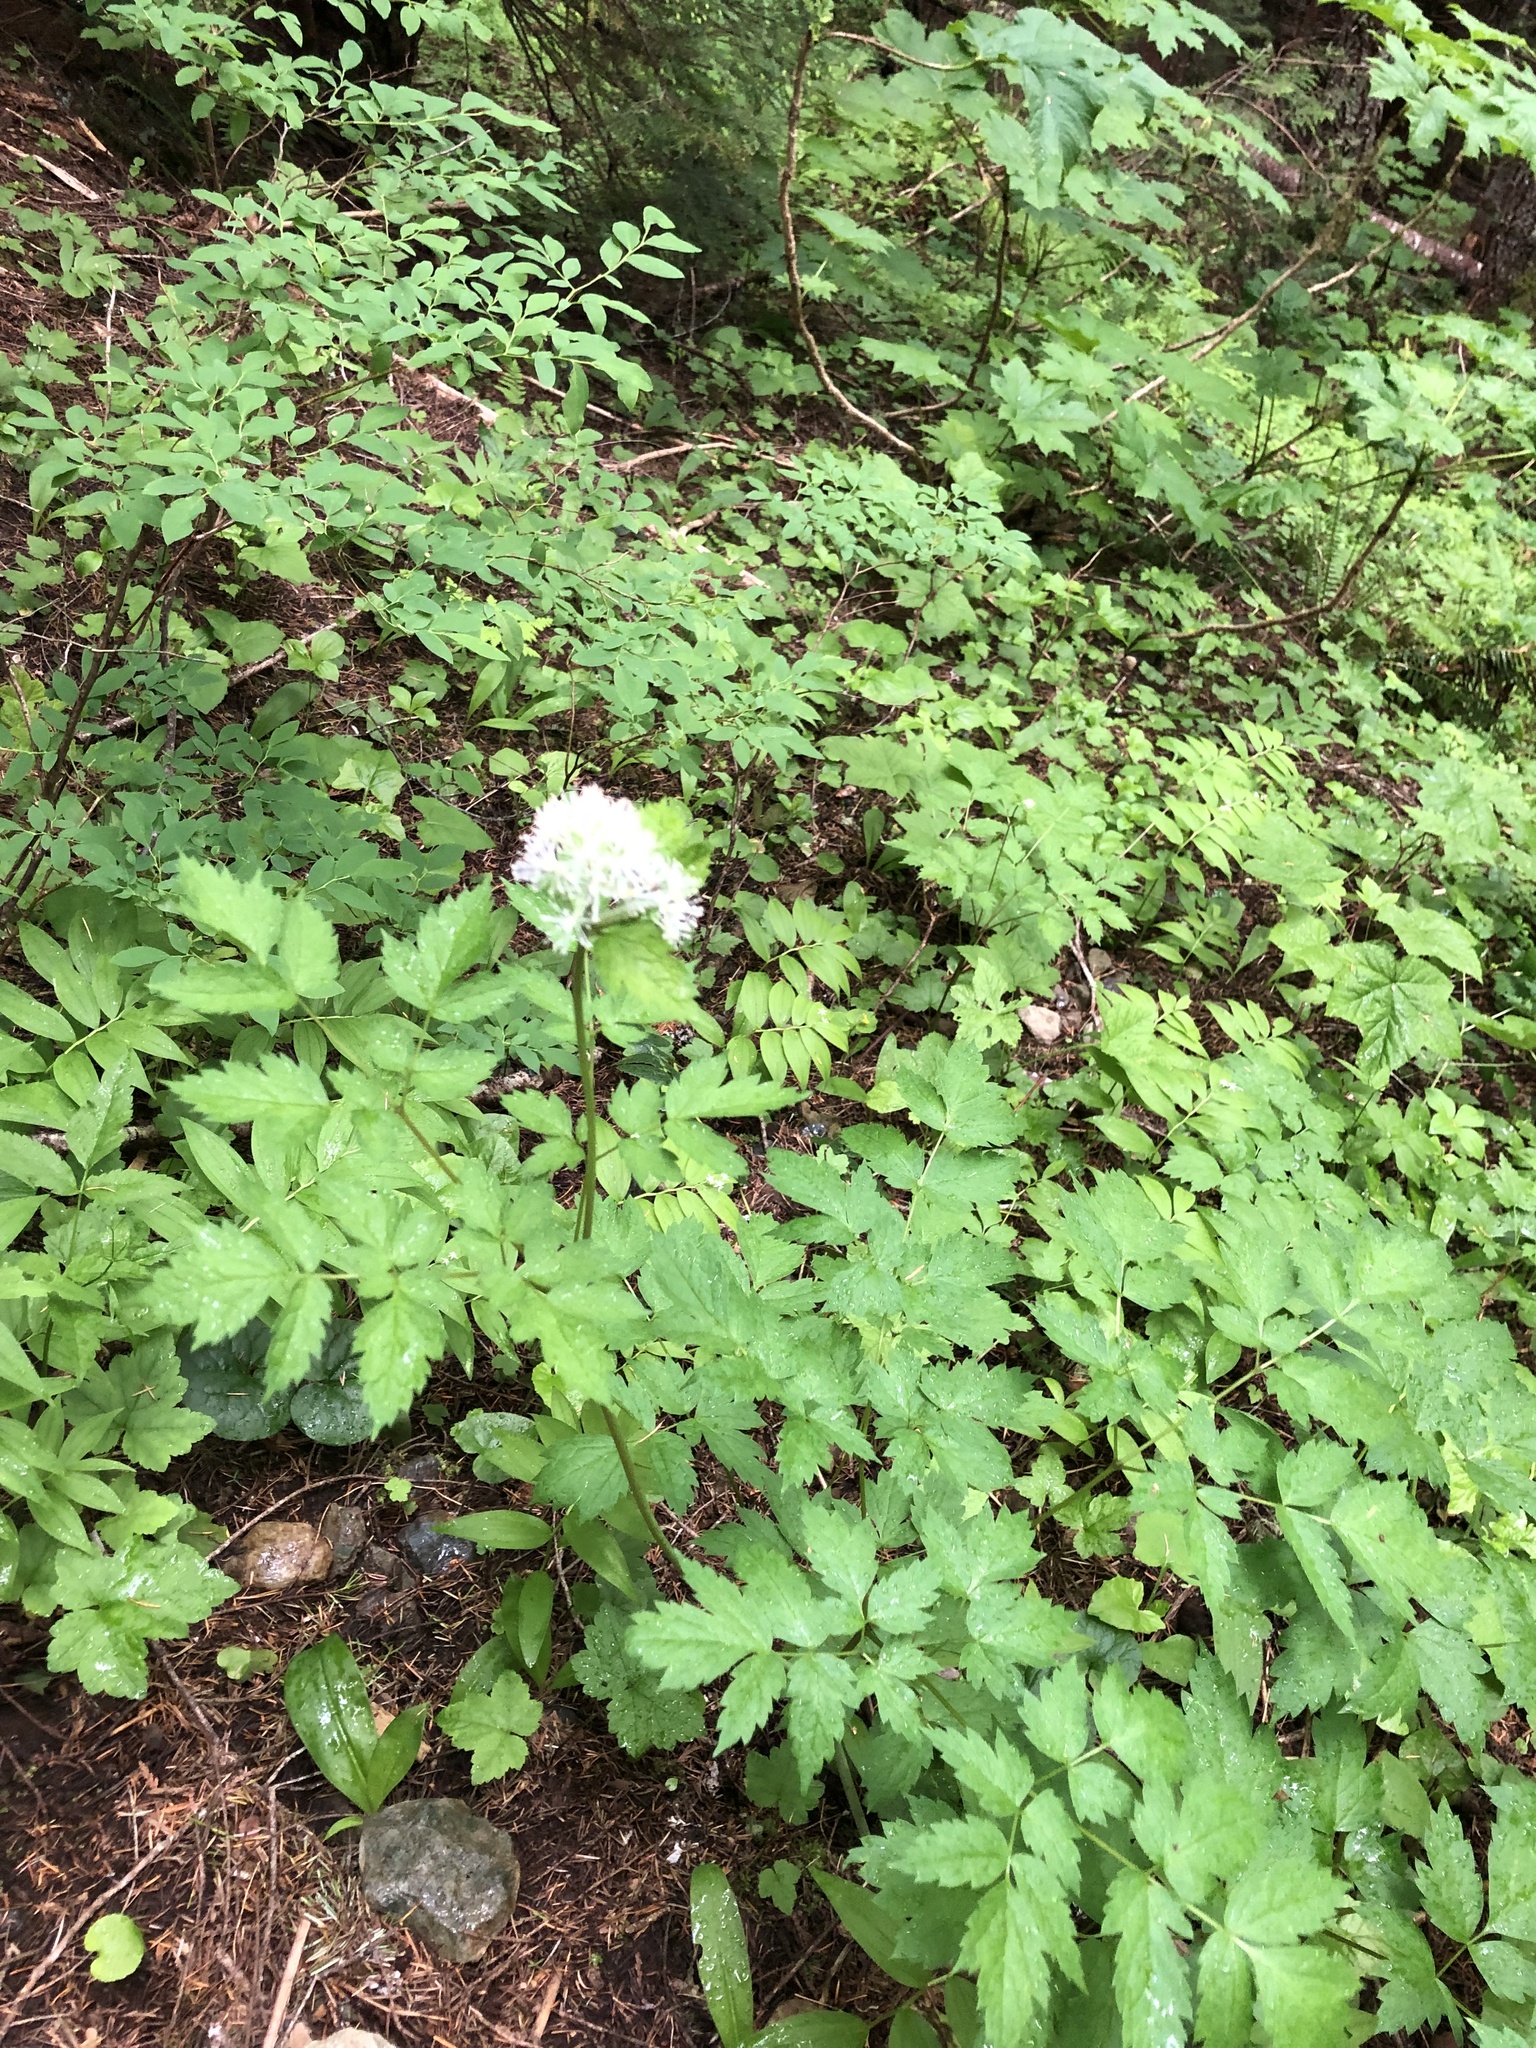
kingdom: Plantae
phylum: Tracheophyta
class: Magnoliopsida
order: Ranunculales
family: Ranunculaceae
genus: Actaea
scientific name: Actaea rubra
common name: Red baneberry
